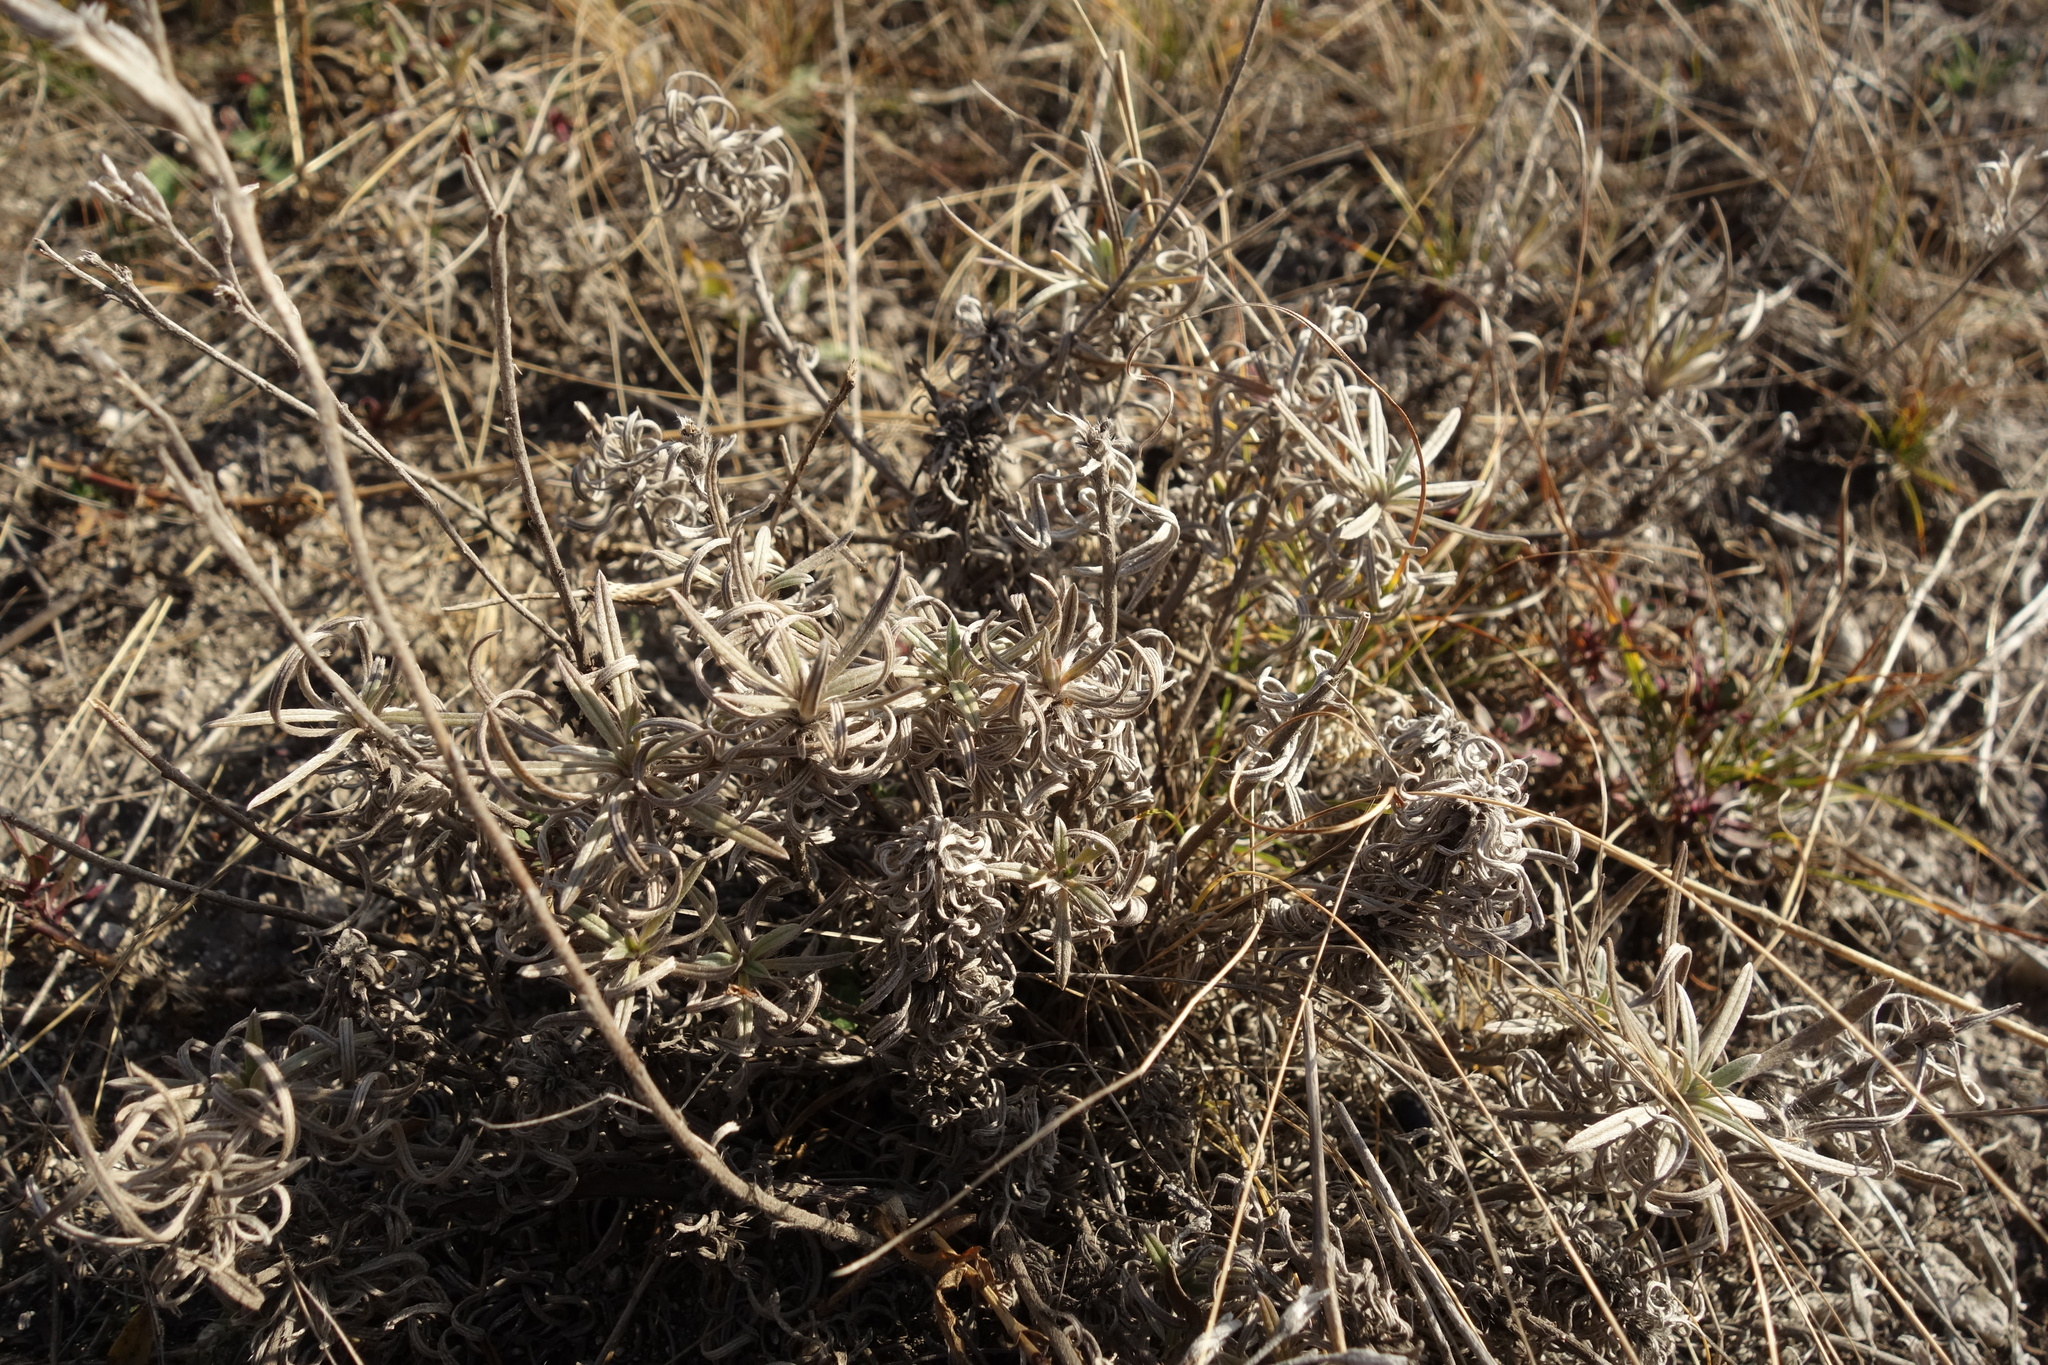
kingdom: Plantae
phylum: Tracheophyta
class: Magnoliopsida
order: Boraginales
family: Boraginaceae
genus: Onosma
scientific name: Onosma simplicissima
